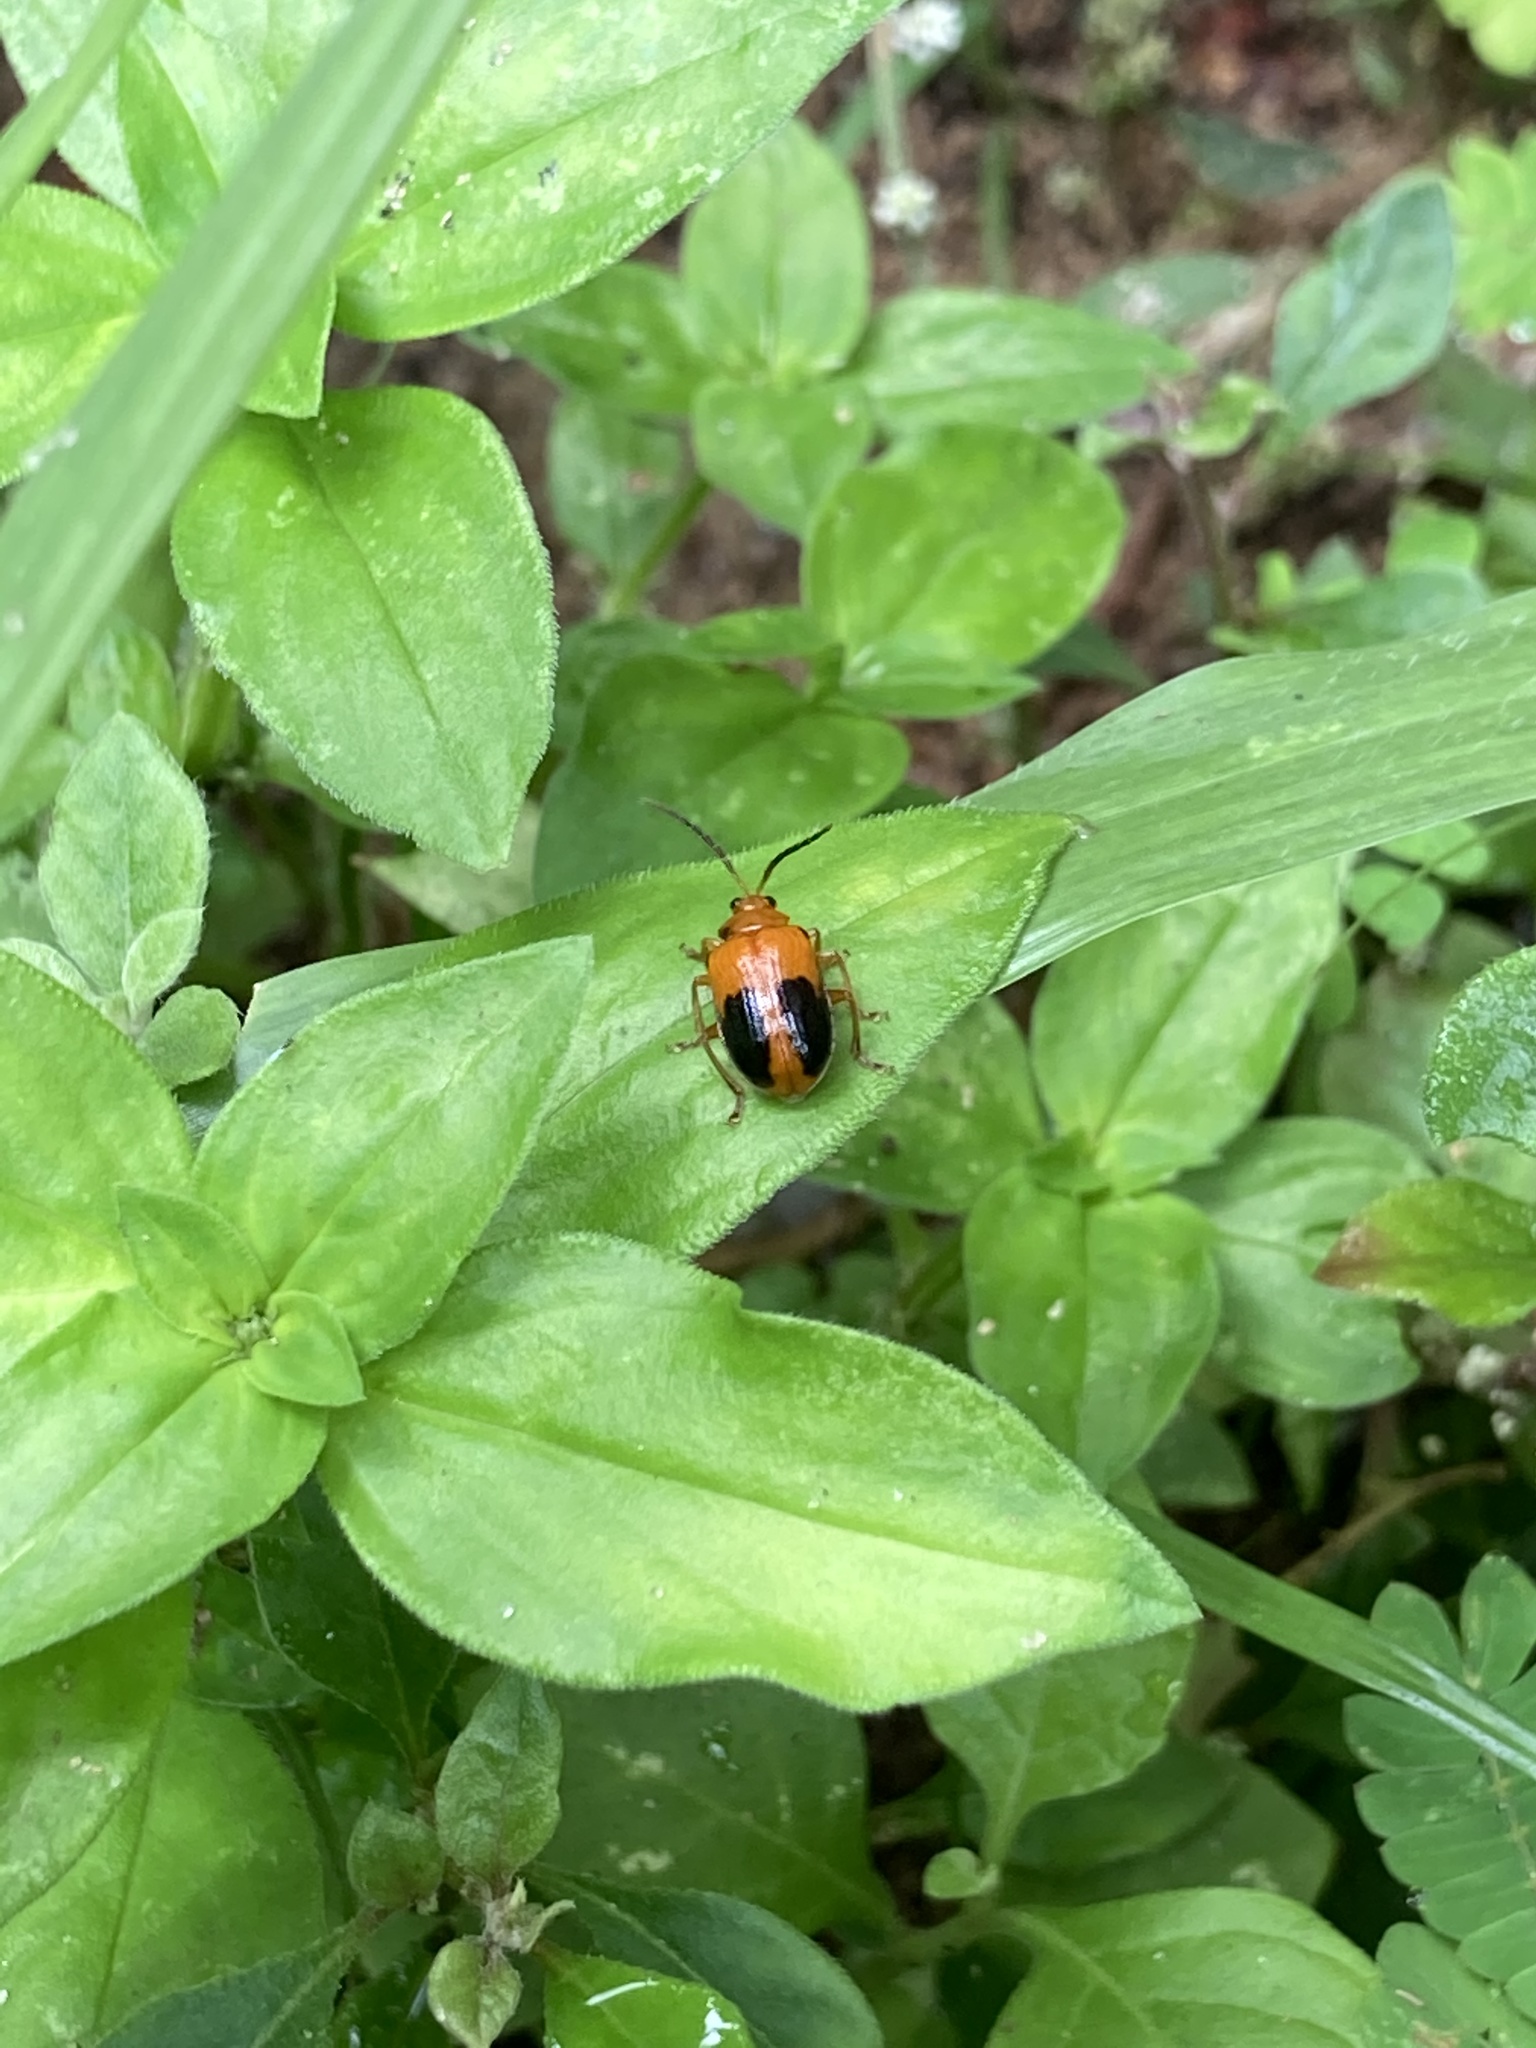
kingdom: Animalia
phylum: Arthropoda
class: Insecta
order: Coleoptera
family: Chrysomelidae
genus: Sphenoraia
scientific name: Sphenoraia
